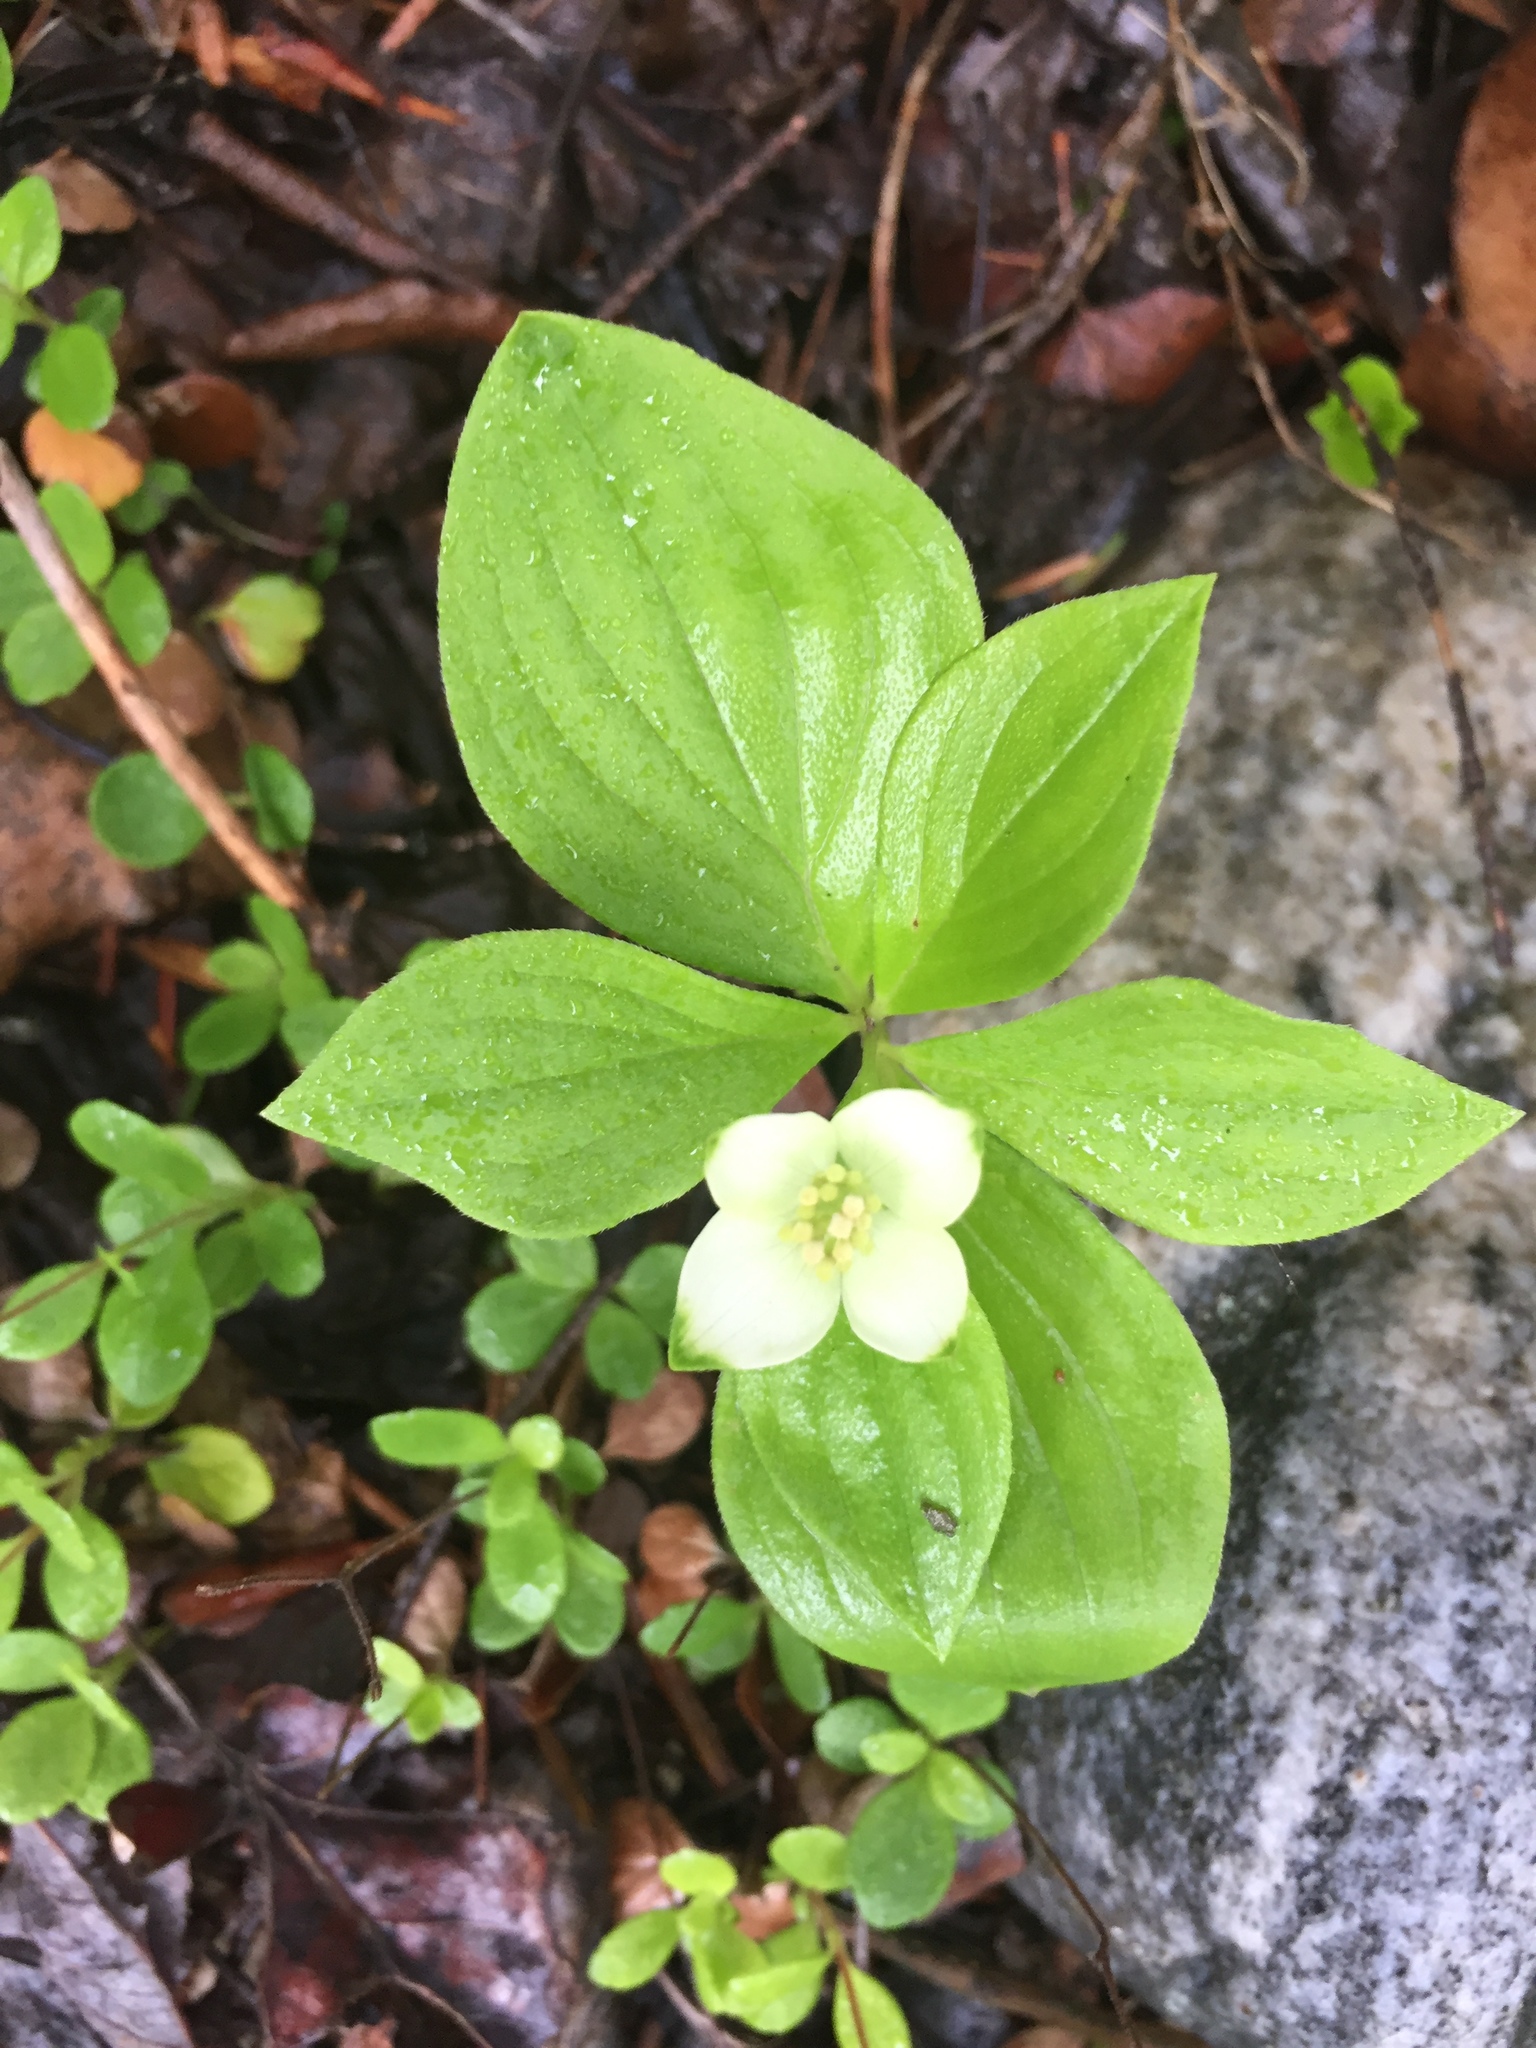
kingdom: Plantae
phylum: Tracheophyta
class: Magnoliopsida
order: Cornales
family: Cornaceae
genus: Cornus
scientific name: Cornus canadensis
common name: Creeping dogwood
